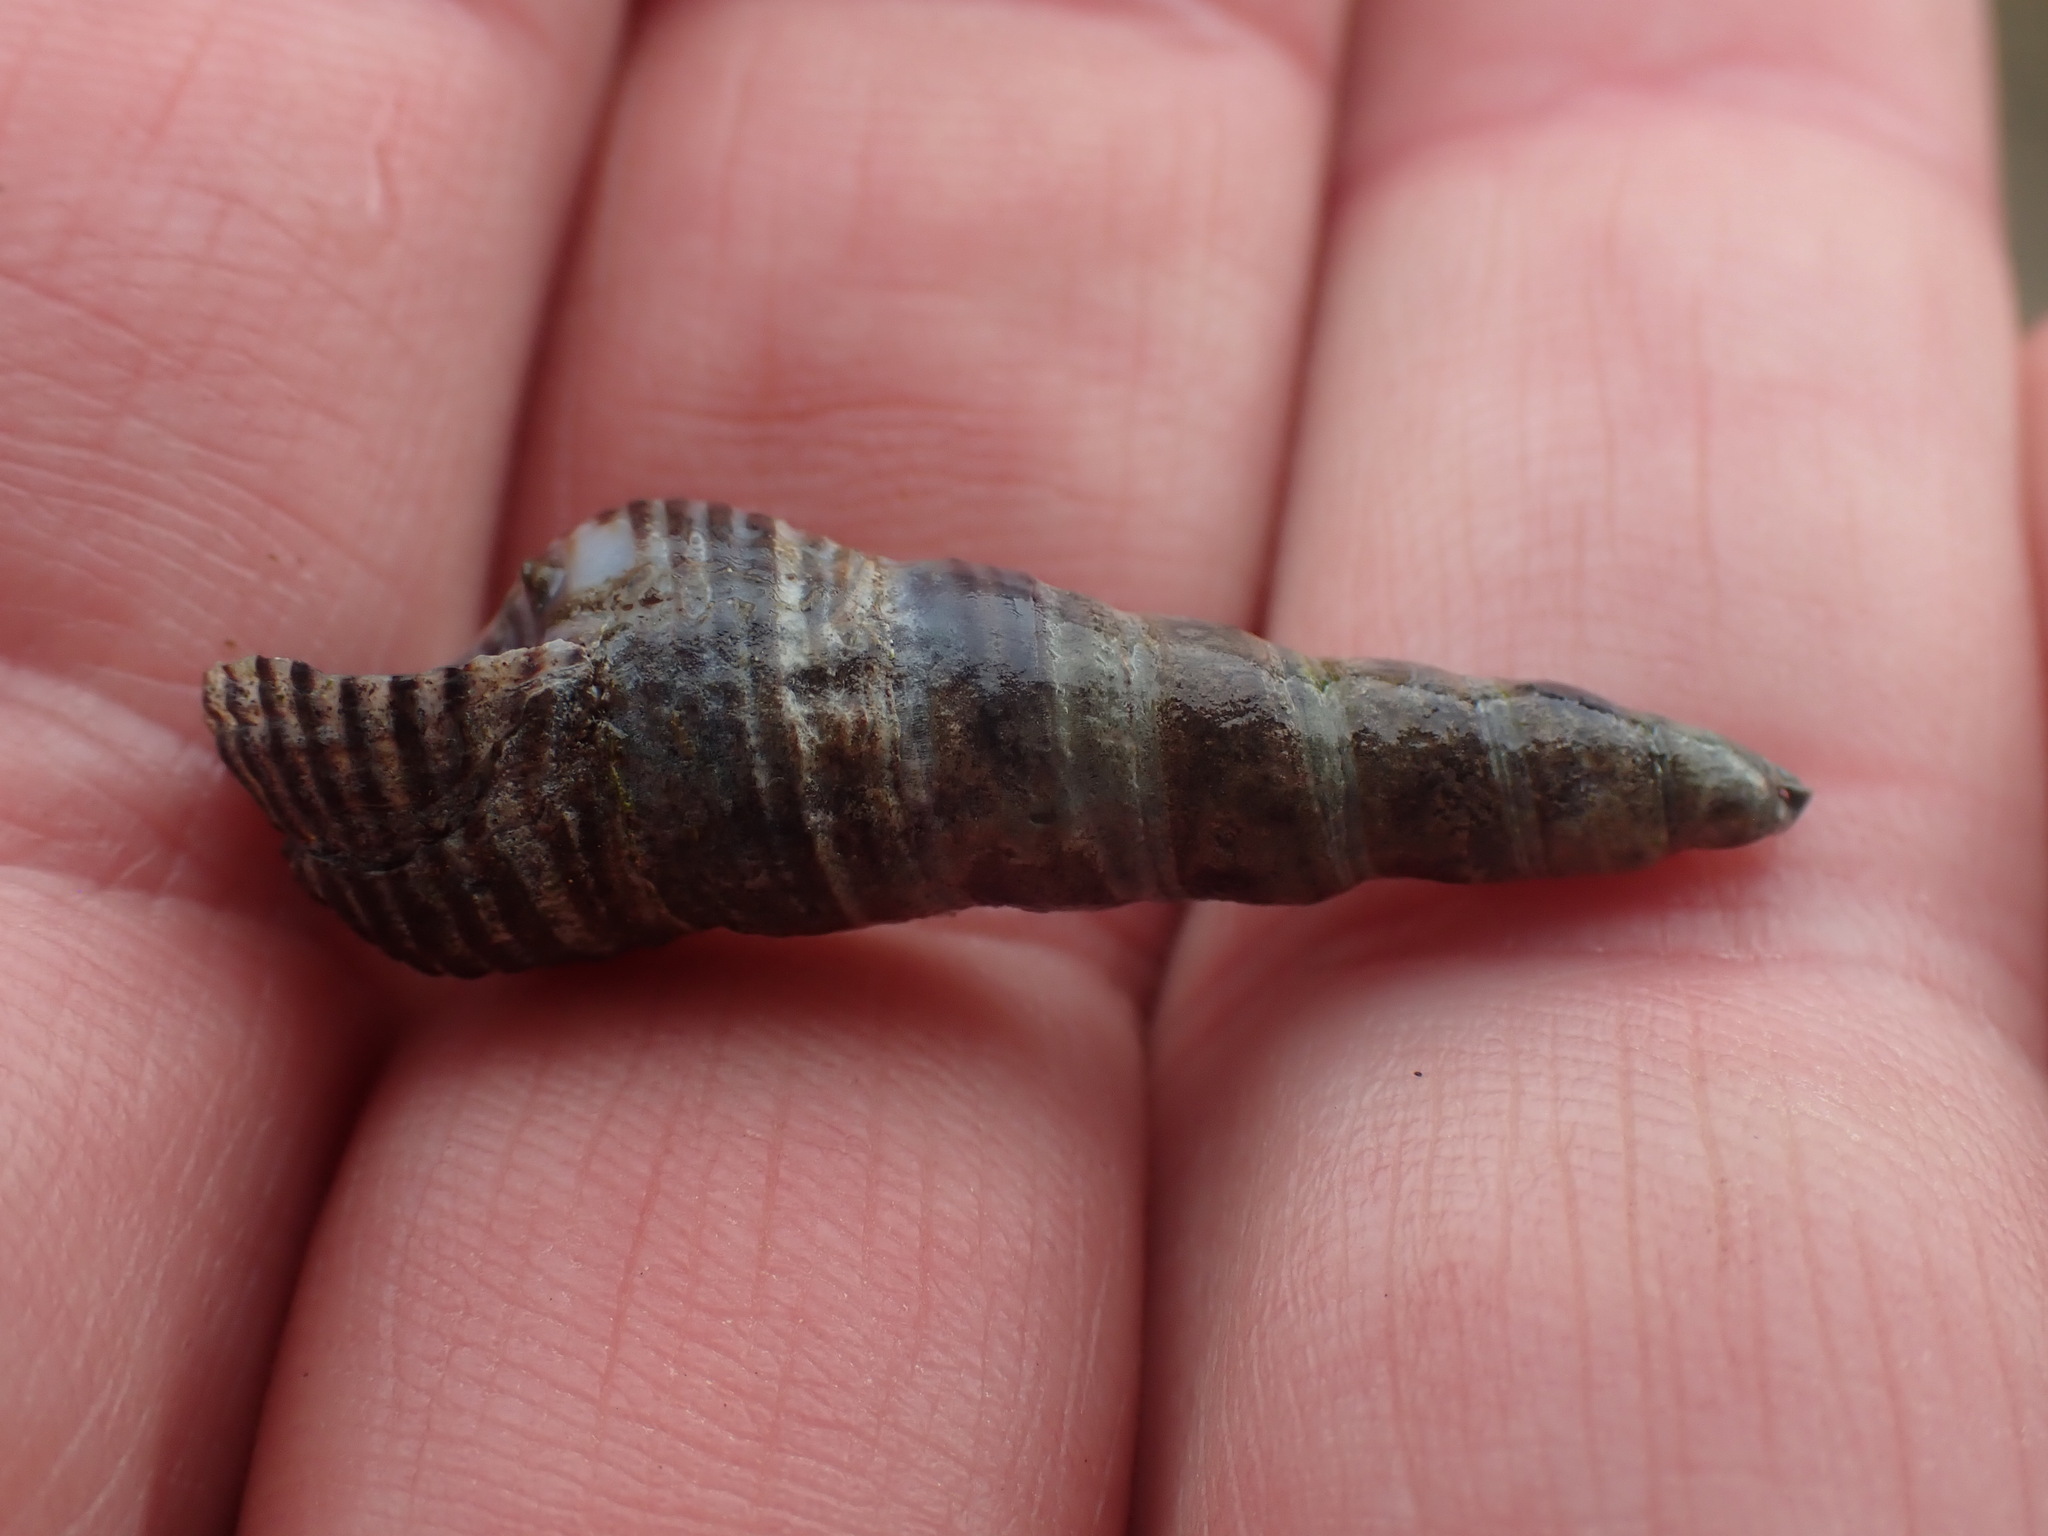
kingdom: Animalia
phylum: Mollusca
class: Gastropoda
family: Batillariidae
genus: Batillaria
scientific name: Batillaria attramentaria
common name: Japanese false cerith
